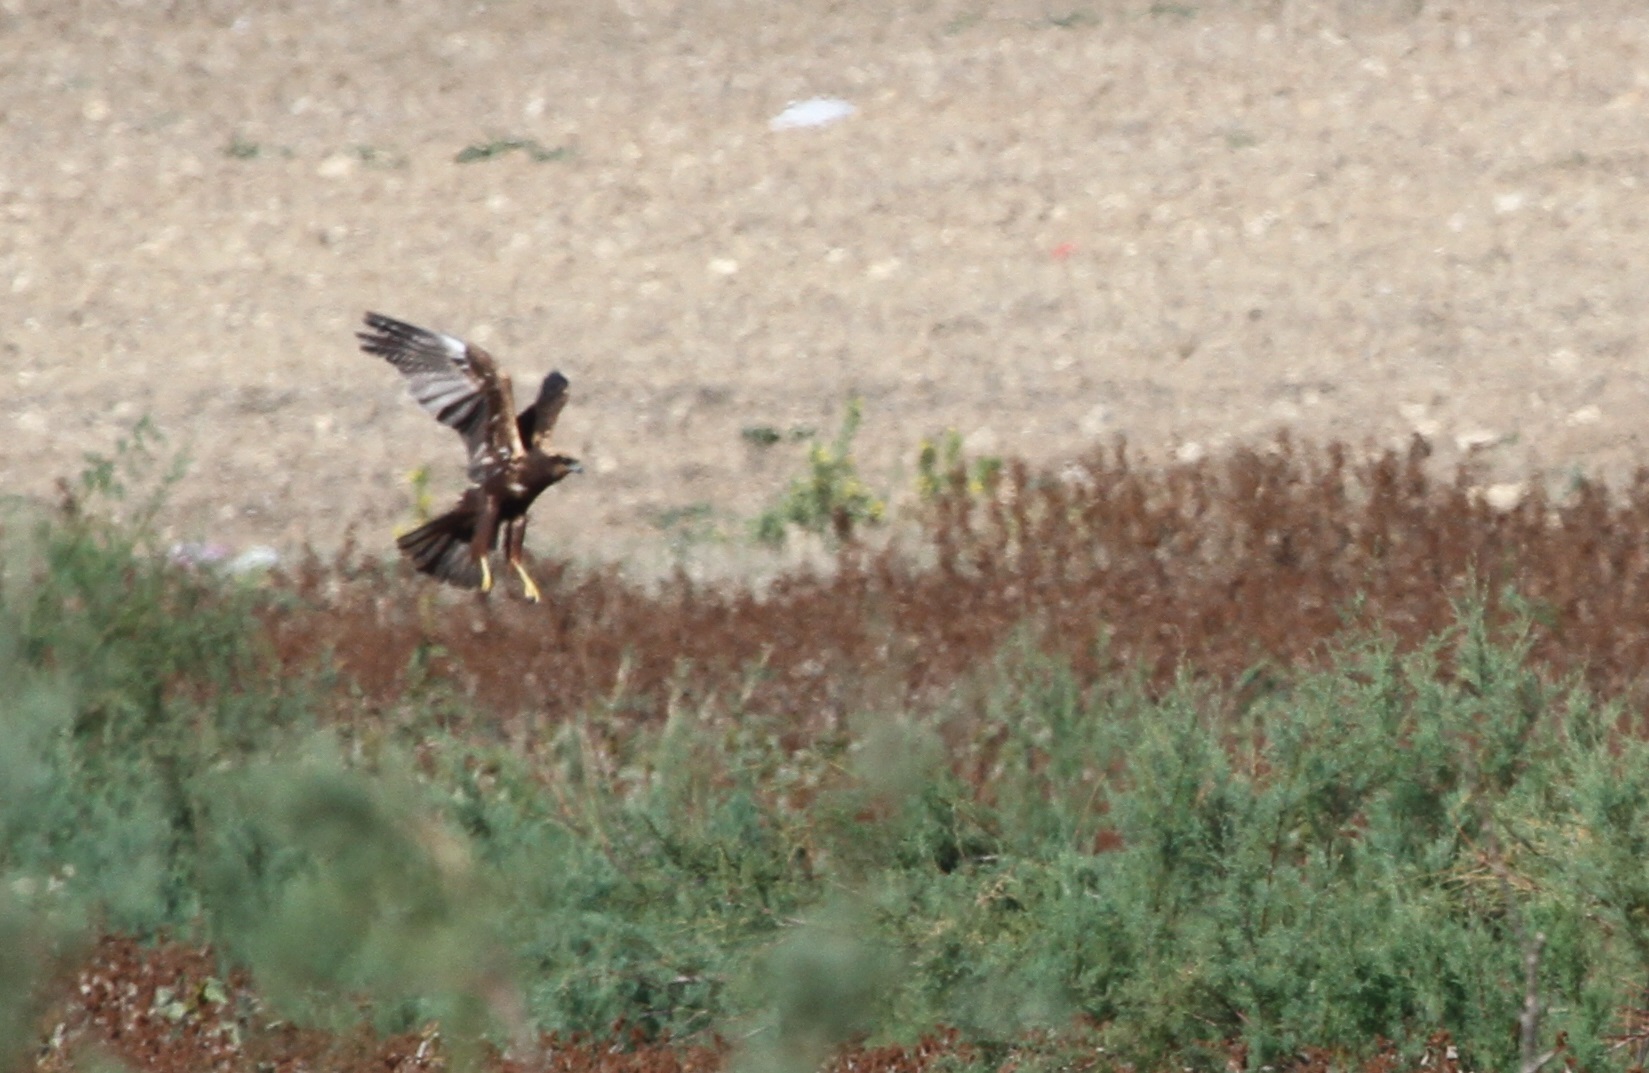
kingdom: Animalia
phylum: Chordata
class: Aves
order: Accipitriformes
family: Accipitridae
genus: Circus
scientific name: Circus aeruginosus
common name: Western marsh harrier
